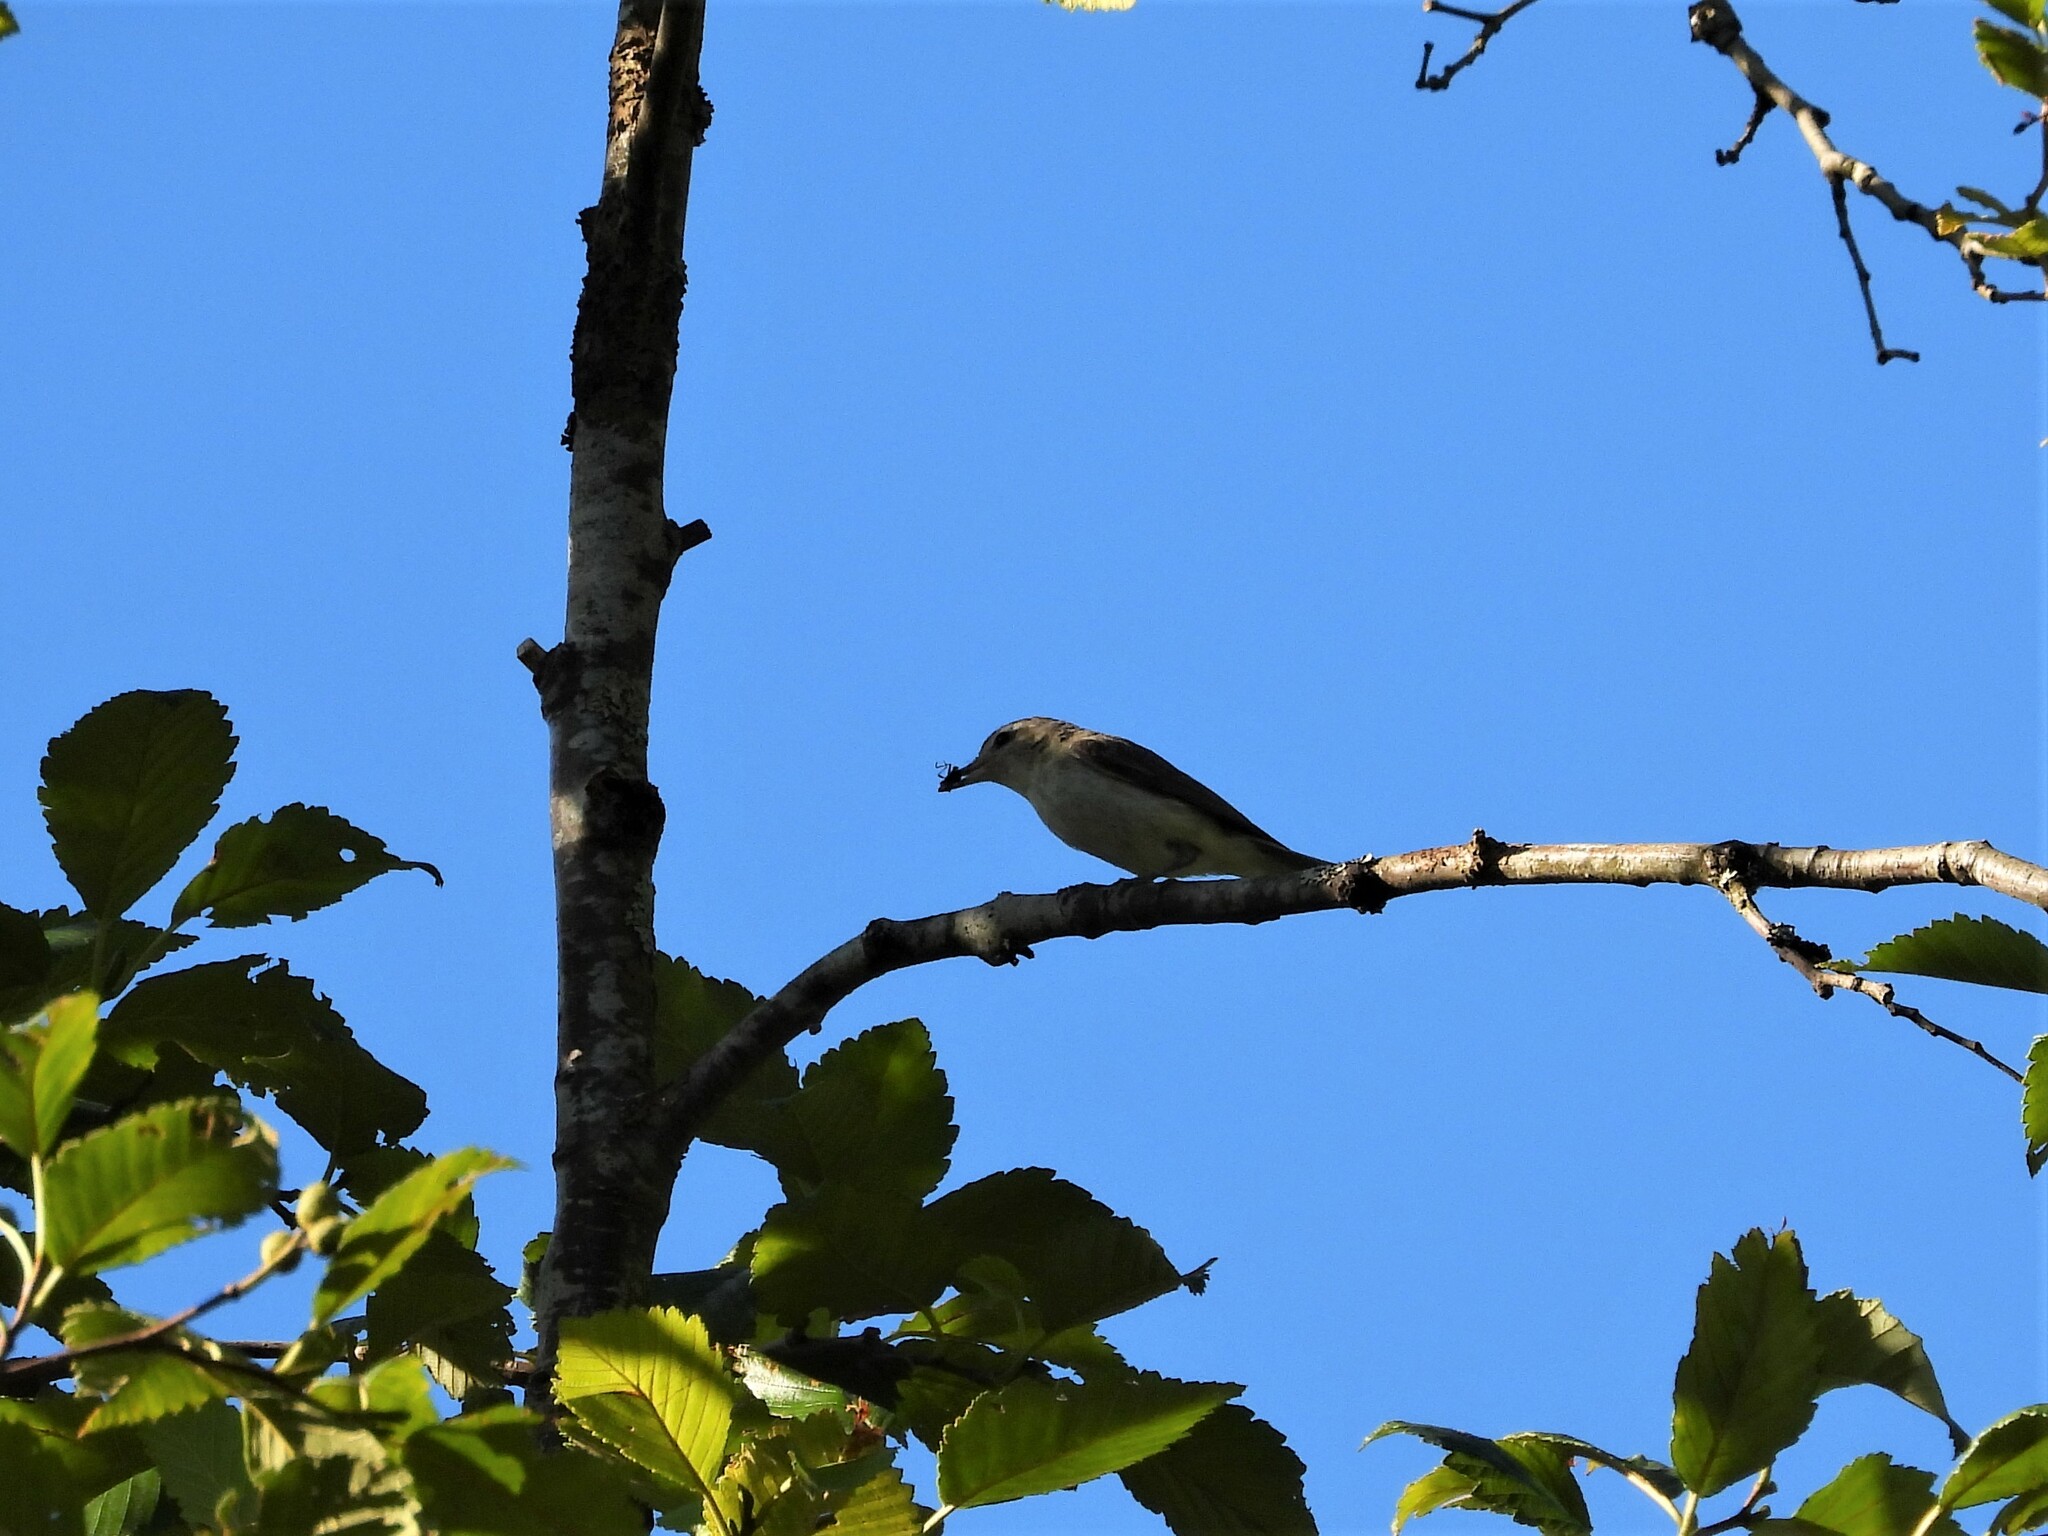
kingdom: Animalia
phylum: Chordata
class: Aves
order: Passeriformes
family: Vireonidae
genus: Vireo
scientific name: Vireo gilvus
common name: Warbling vireo
